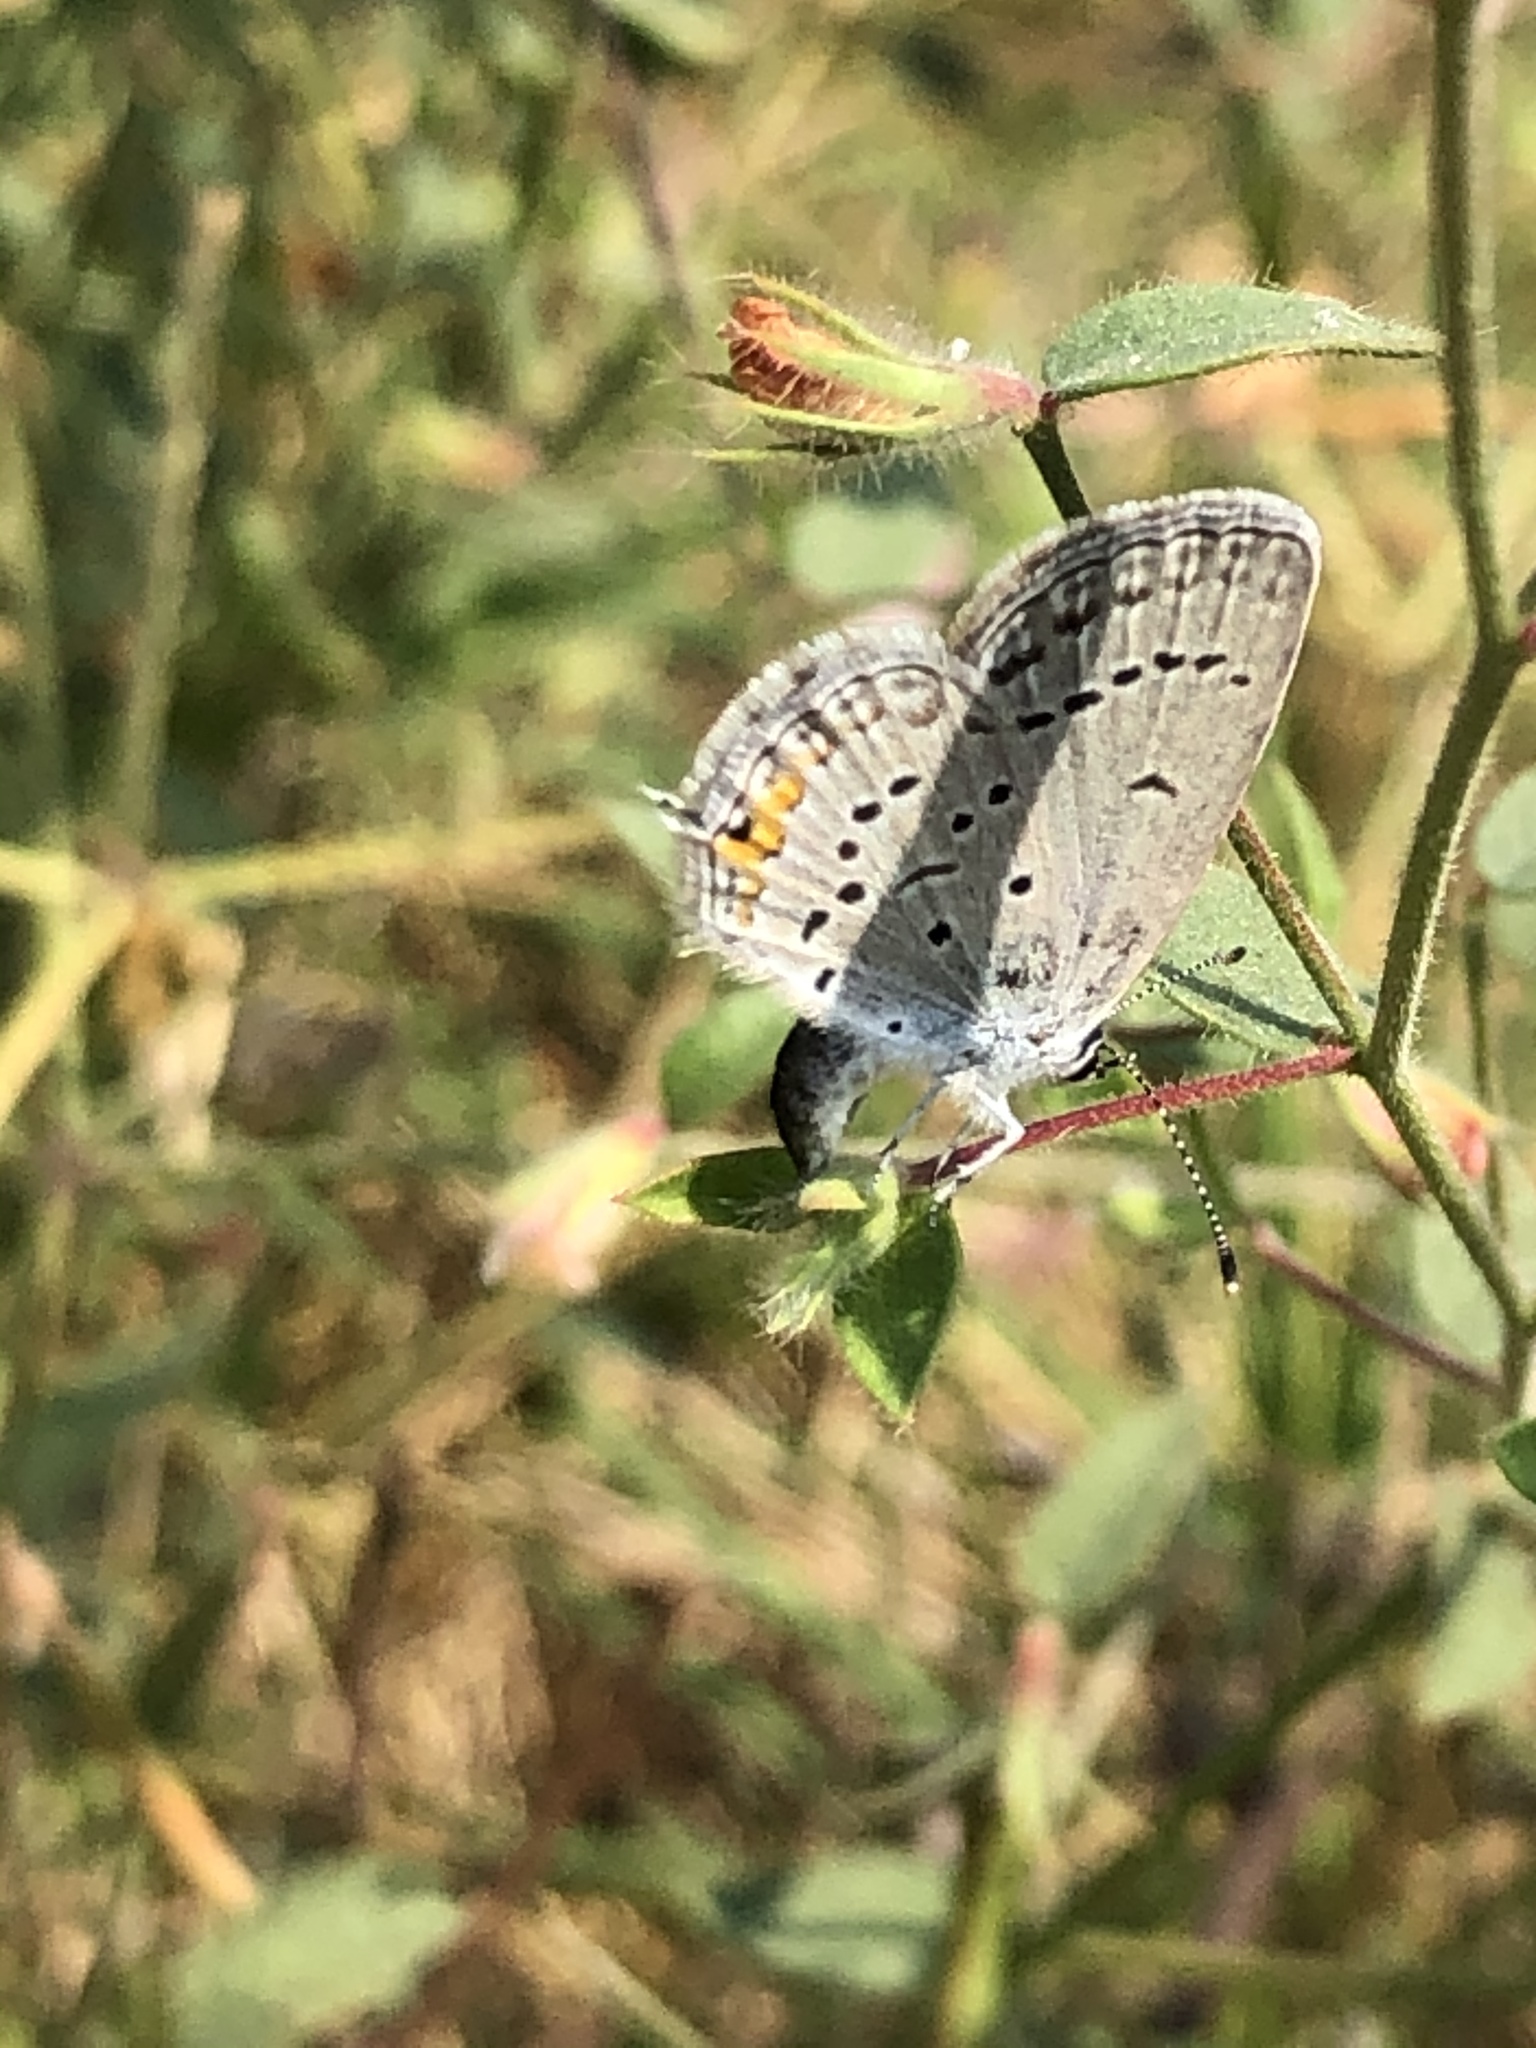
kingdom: Animalia
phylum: Arthropoda
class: Insecta
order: Lepidoptera
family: Lycaenidae
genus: Elkalyce
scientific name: Elkalyce comyntas
